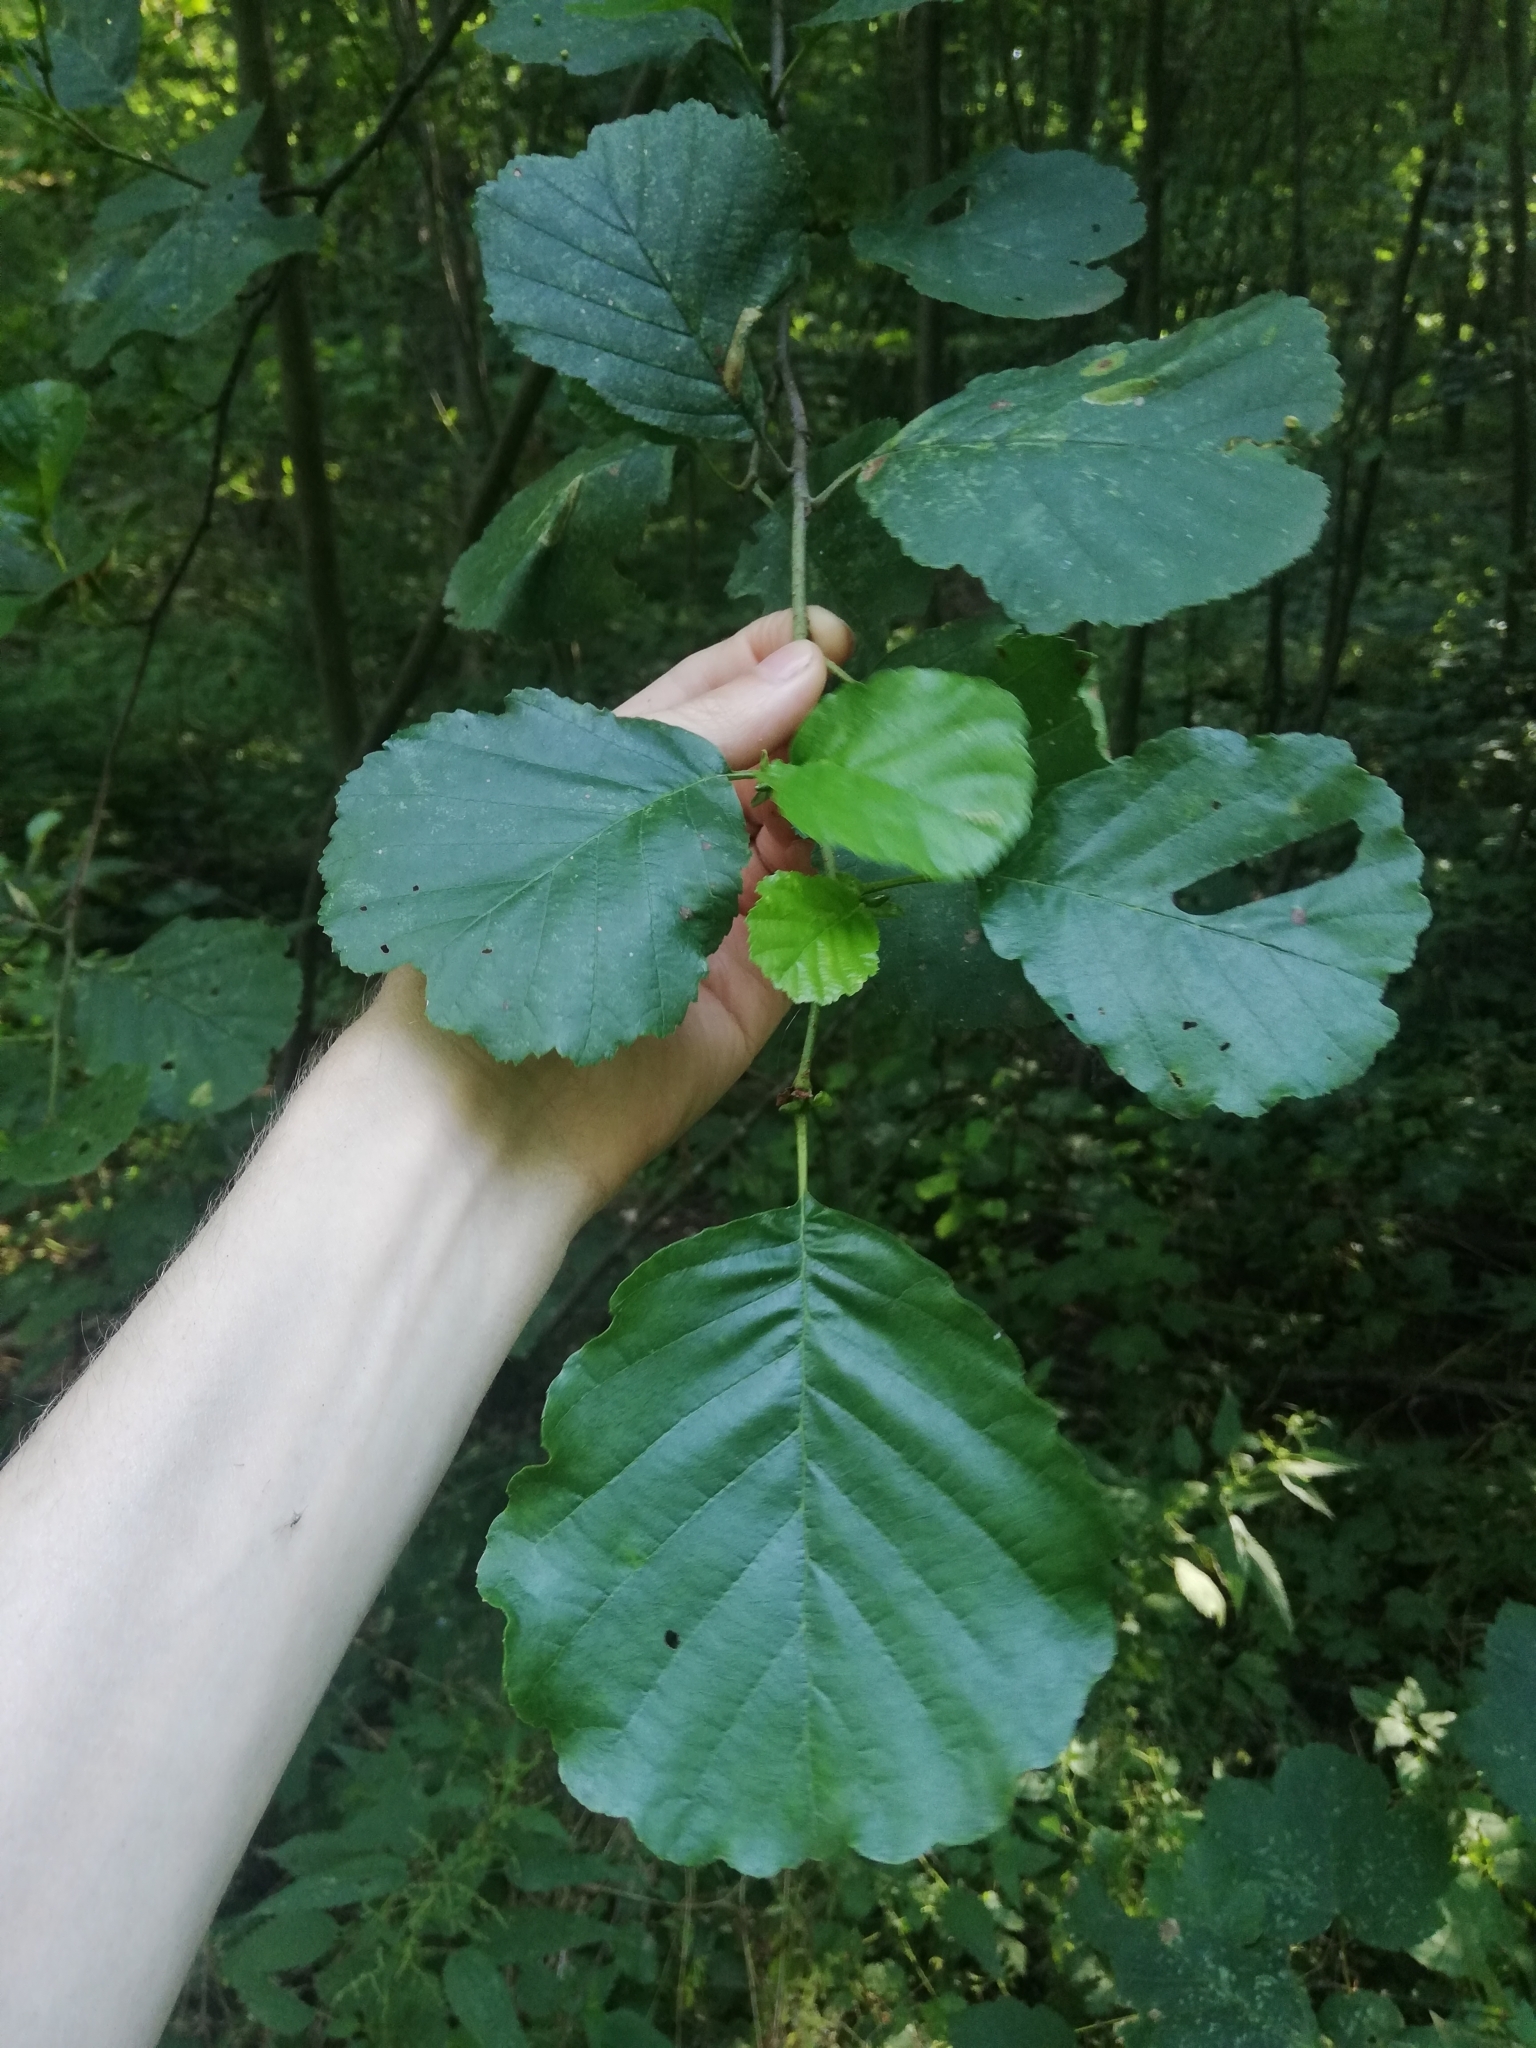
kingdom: Plantae
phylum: Tracheophyta
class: Magnoliopsida
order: Fagales
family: Betulaceae
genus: Alnus
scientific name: Alnus glutinosa
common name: Black alder
